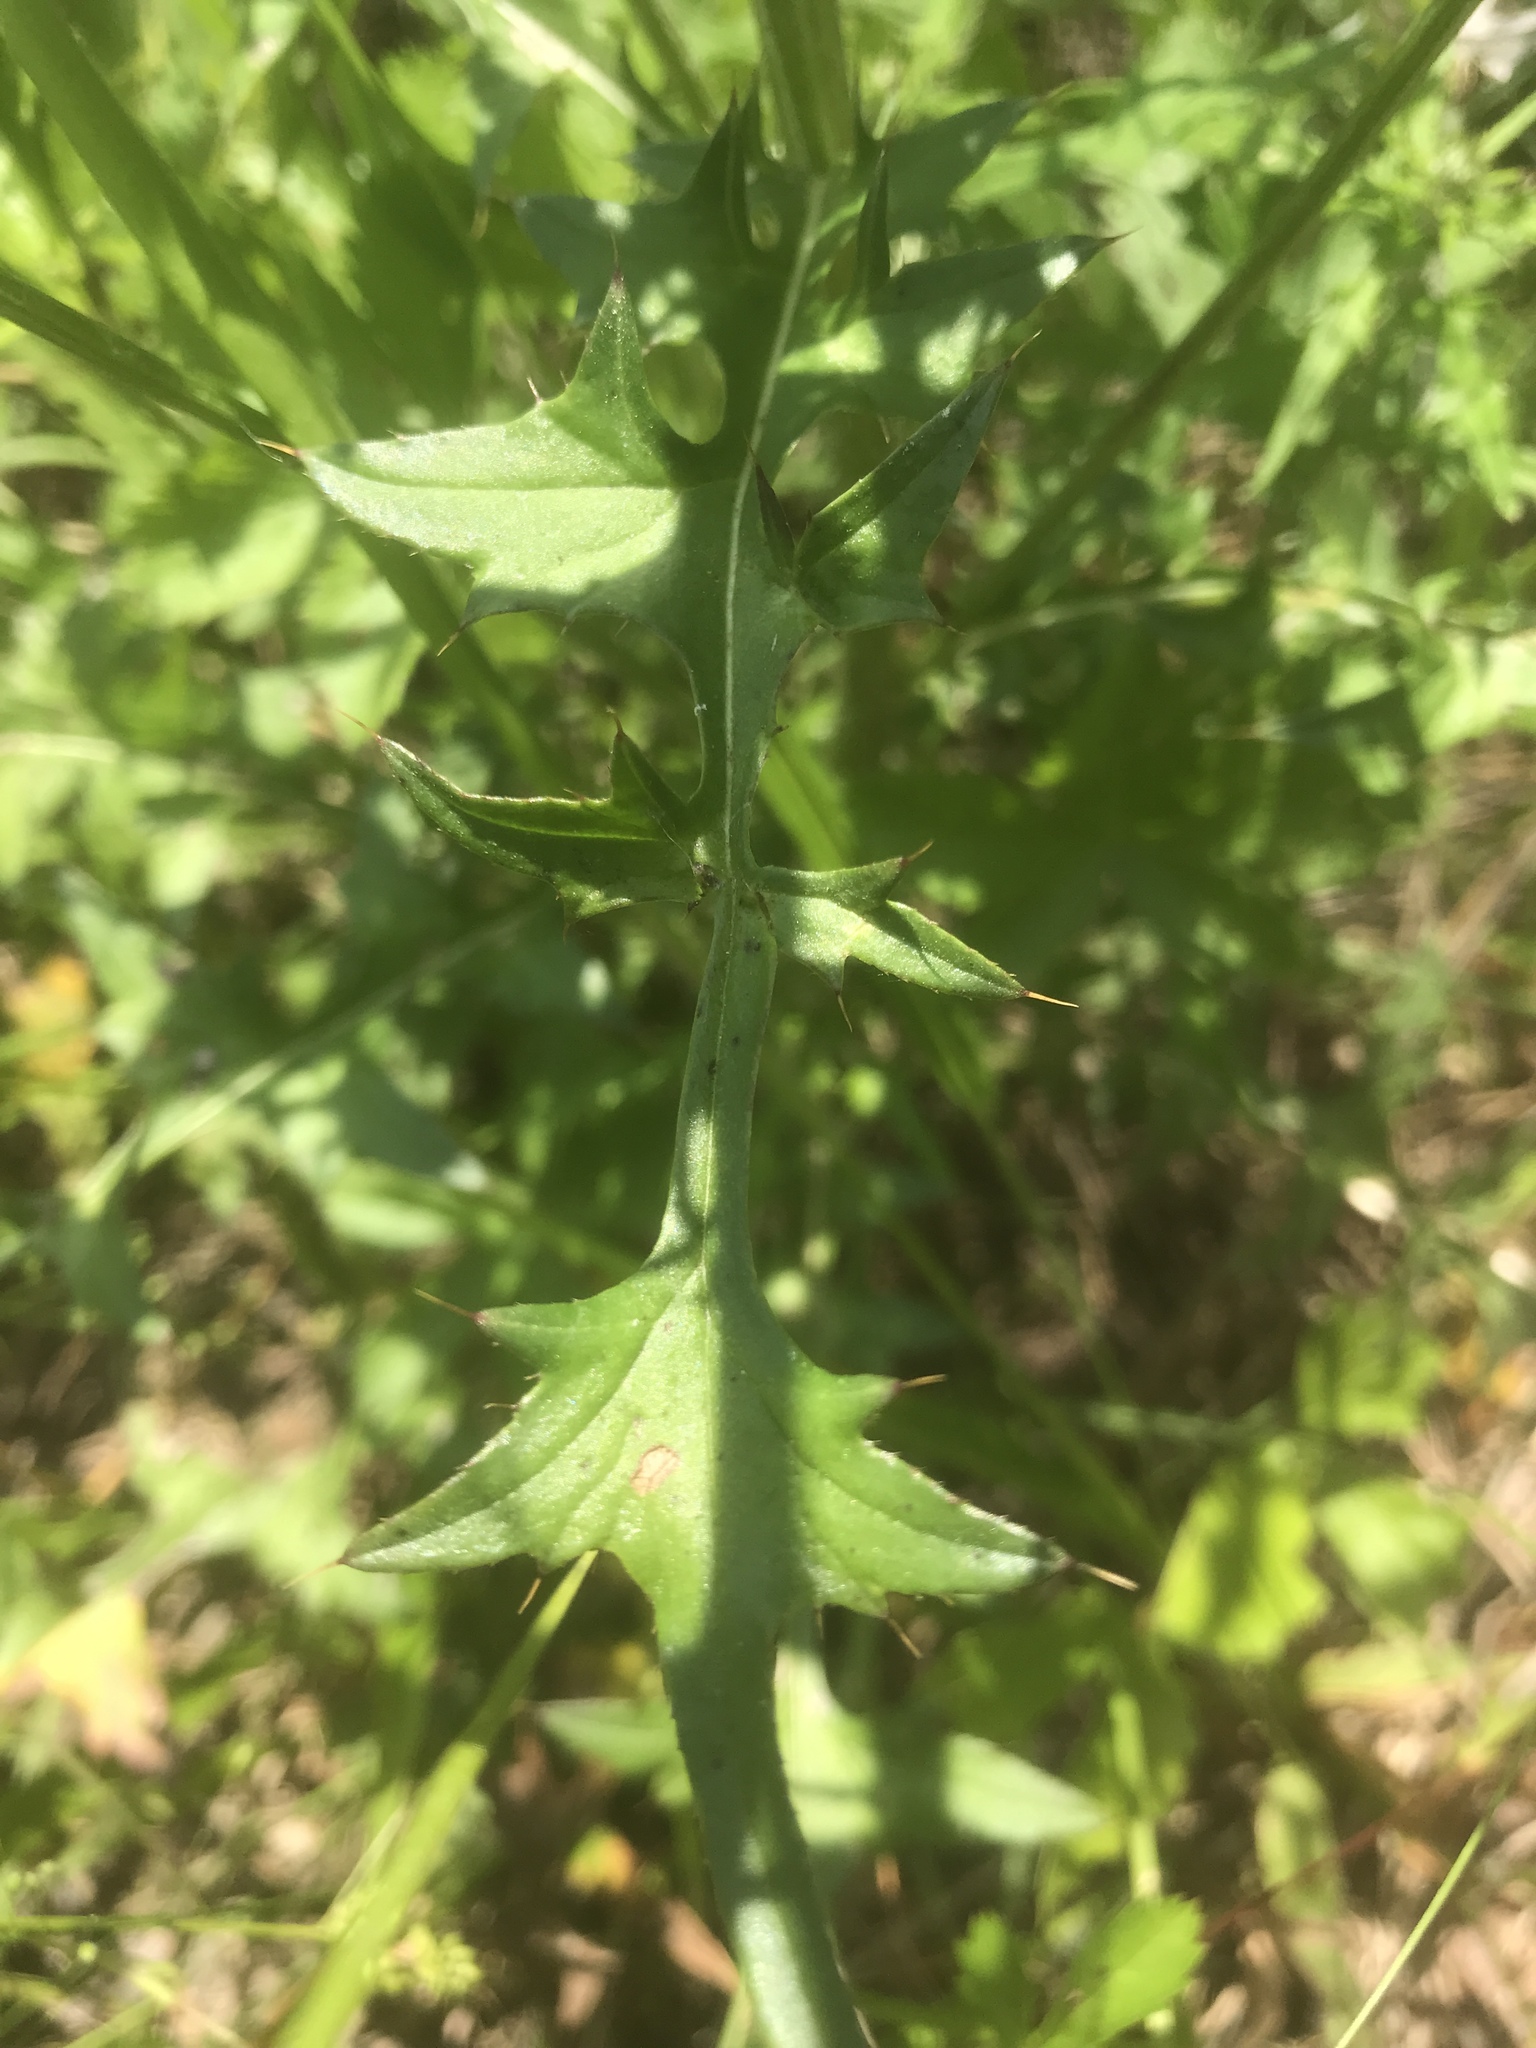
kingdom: Plantae
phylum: Tracheophyta
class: Magnoliopsida
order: Asterales
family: Asteraceae
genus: Cirsium
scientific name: Cirsium carolinianum
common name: Carolina thistle
